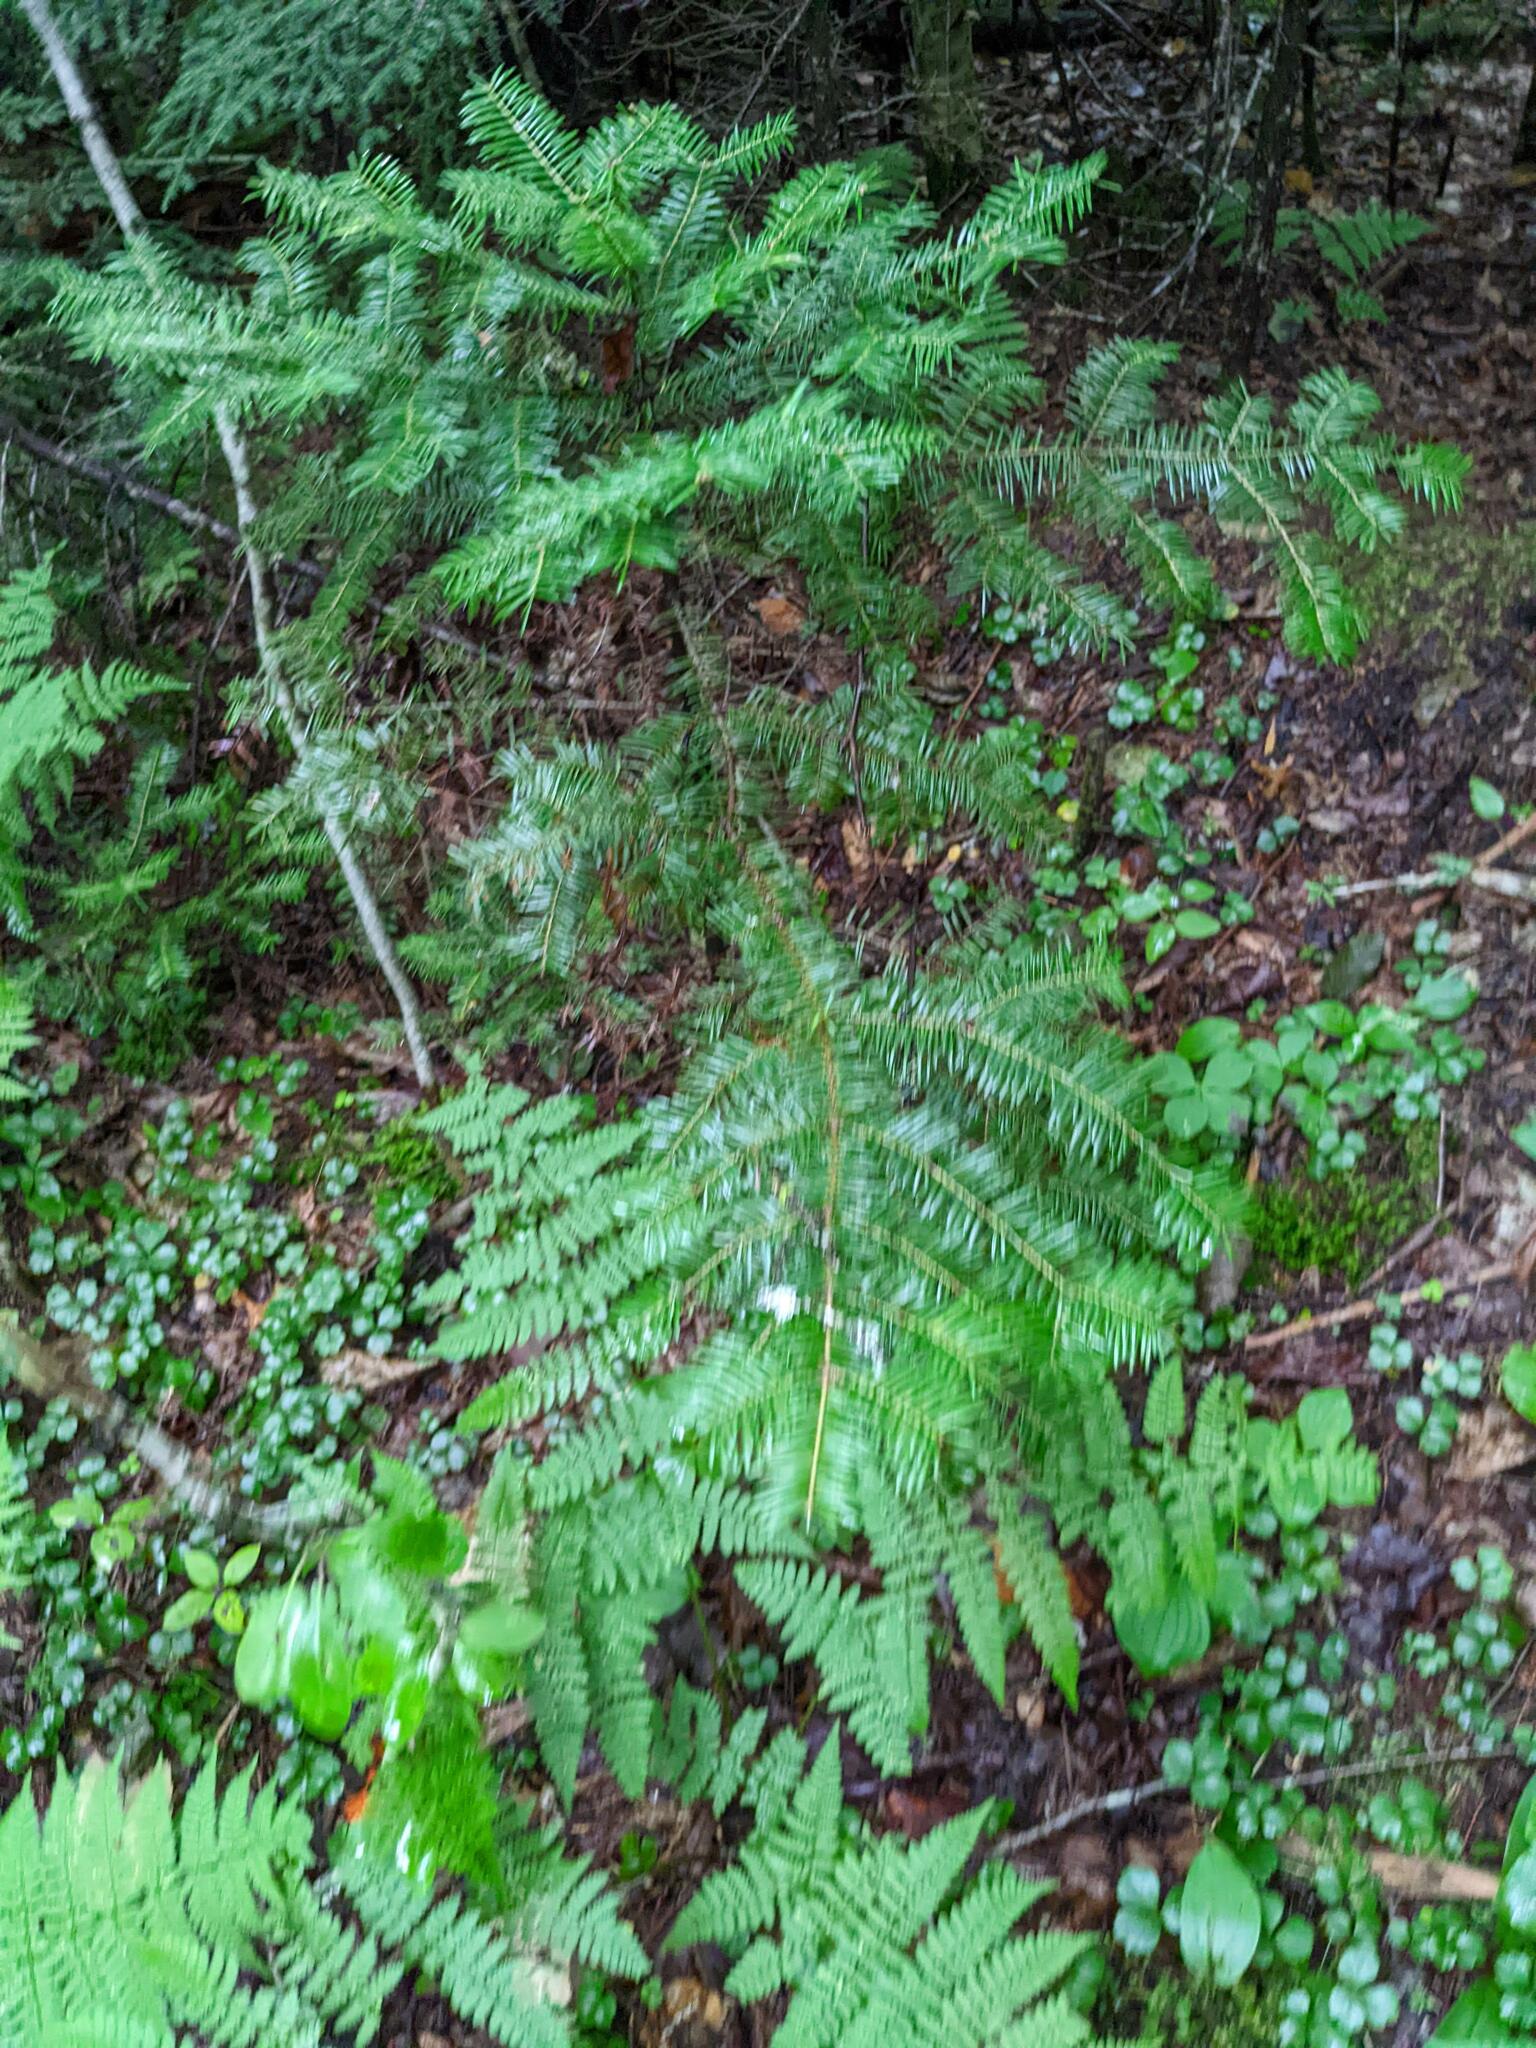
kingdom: Plantae
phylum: Tracheophyta
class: Pinopsida
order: Pinales
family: Pinaceae
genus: Abies
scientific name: Abies balsamea
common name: Balsam fir
